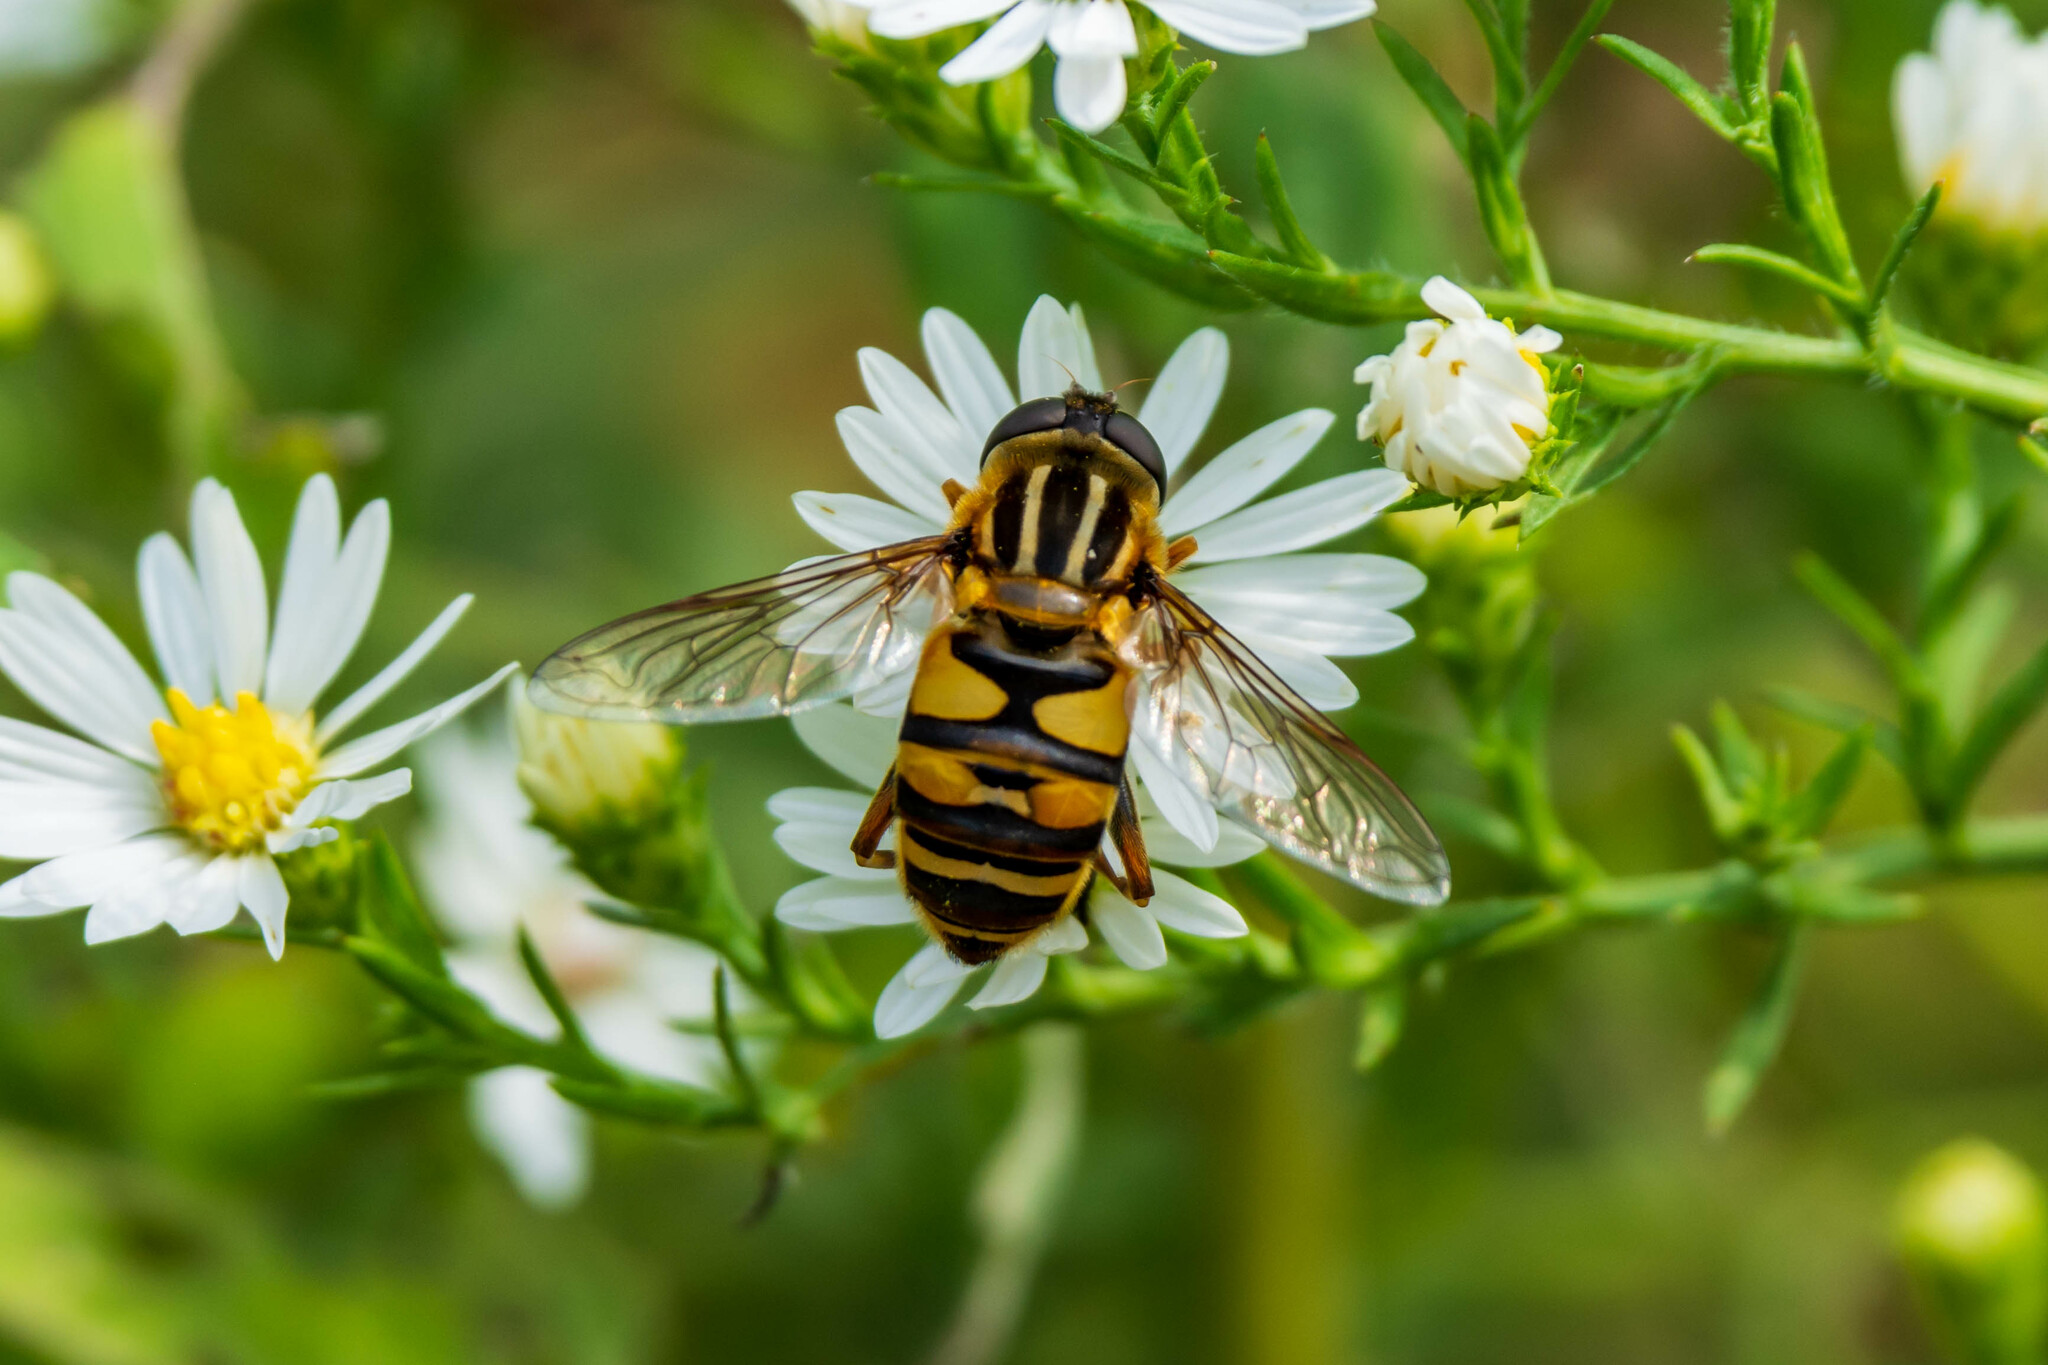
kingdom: Animalia
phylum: Arthropoda
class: Insecta
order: Diptera
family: Syrphidae
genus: Helophilus
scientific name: Helophilus fasciatus
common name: Narrow-headed marsh fly
